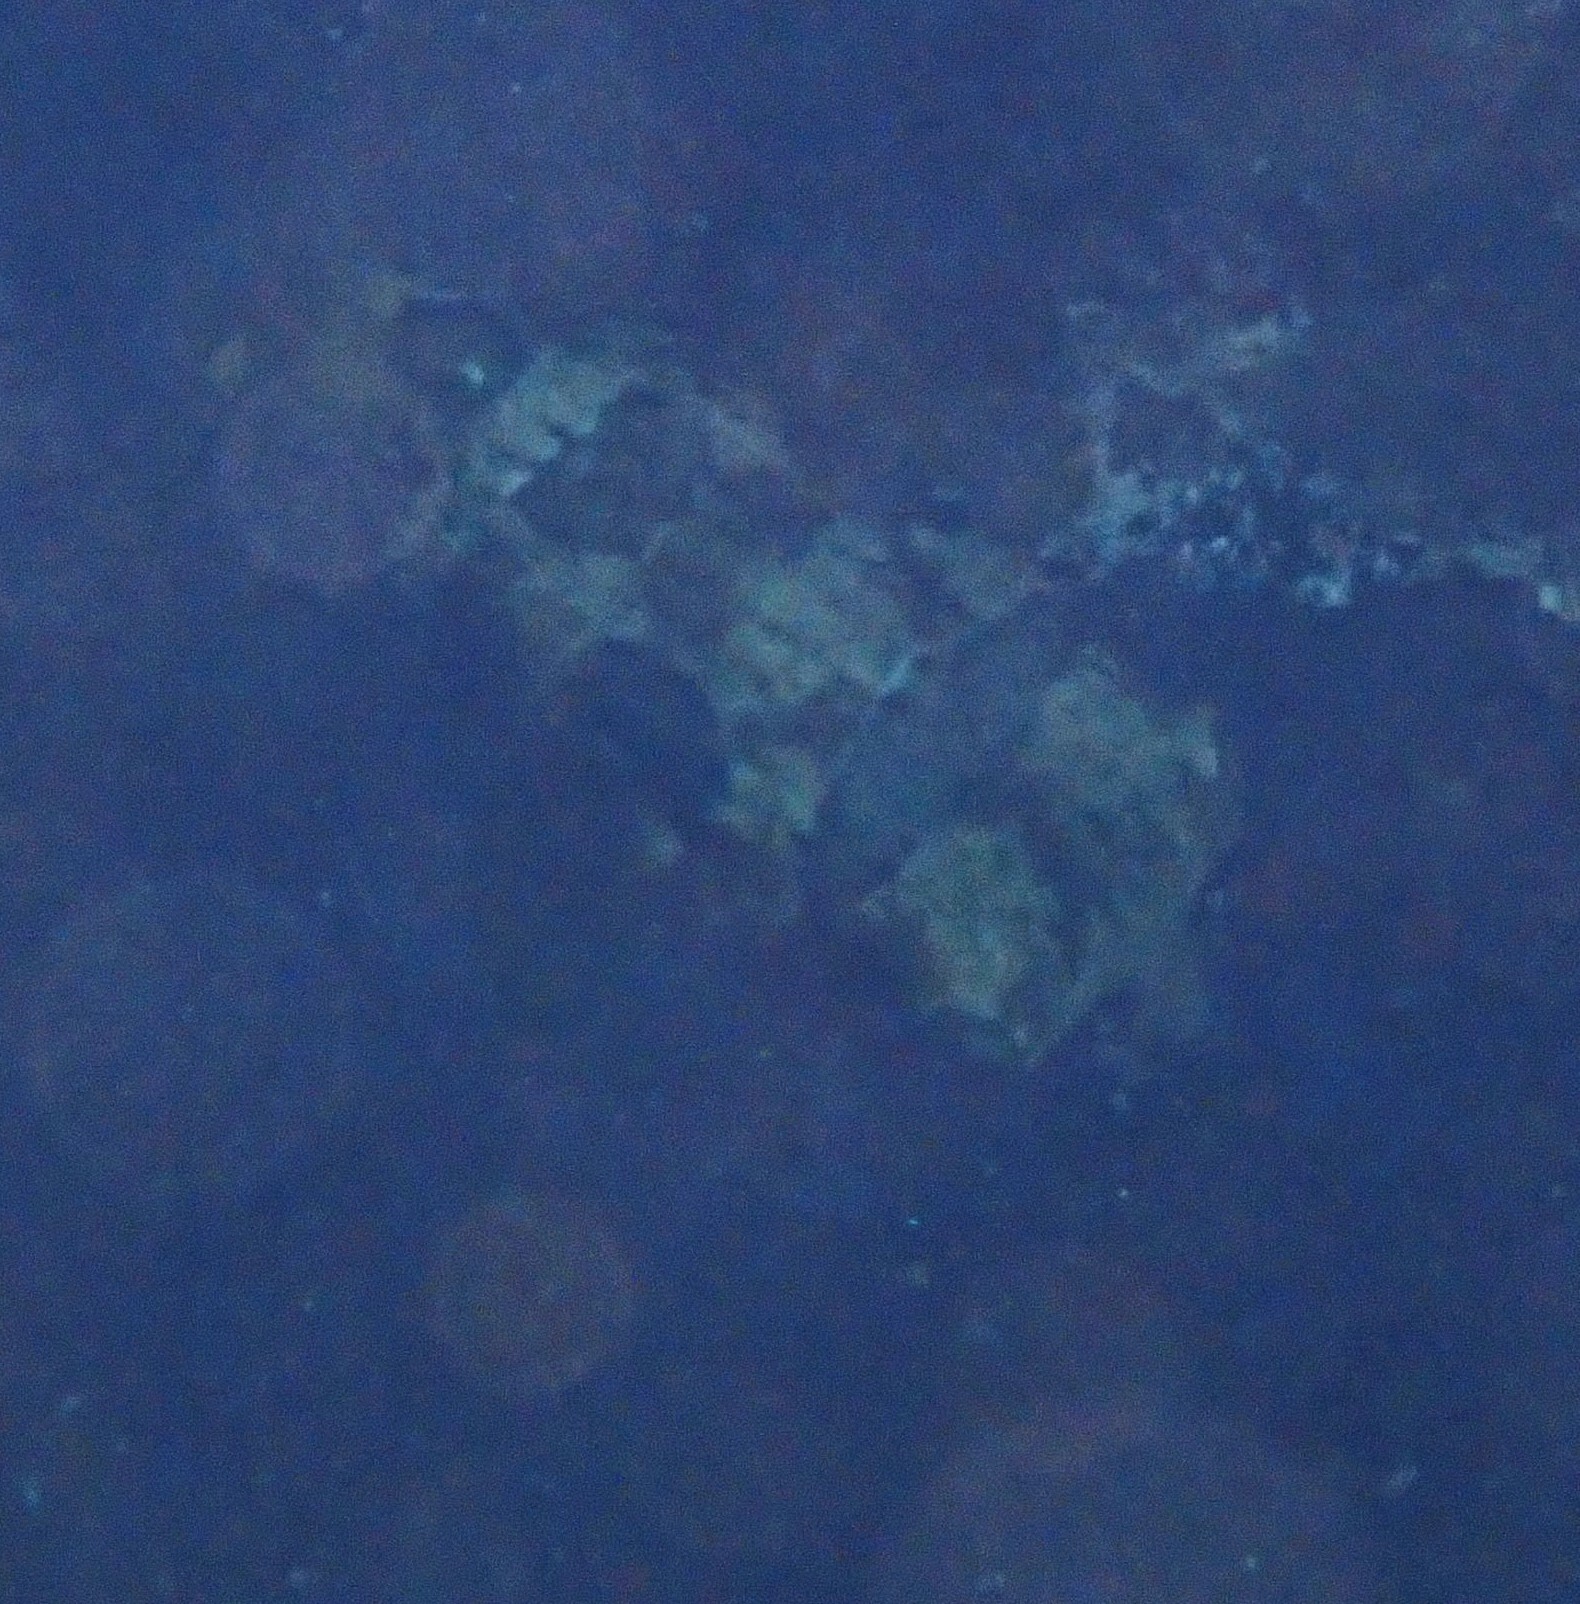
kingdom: Animalia
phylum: Chordata
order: Tetraodontiformes
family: Diodontidae
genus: Diodon
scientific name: Diodon liturosus
